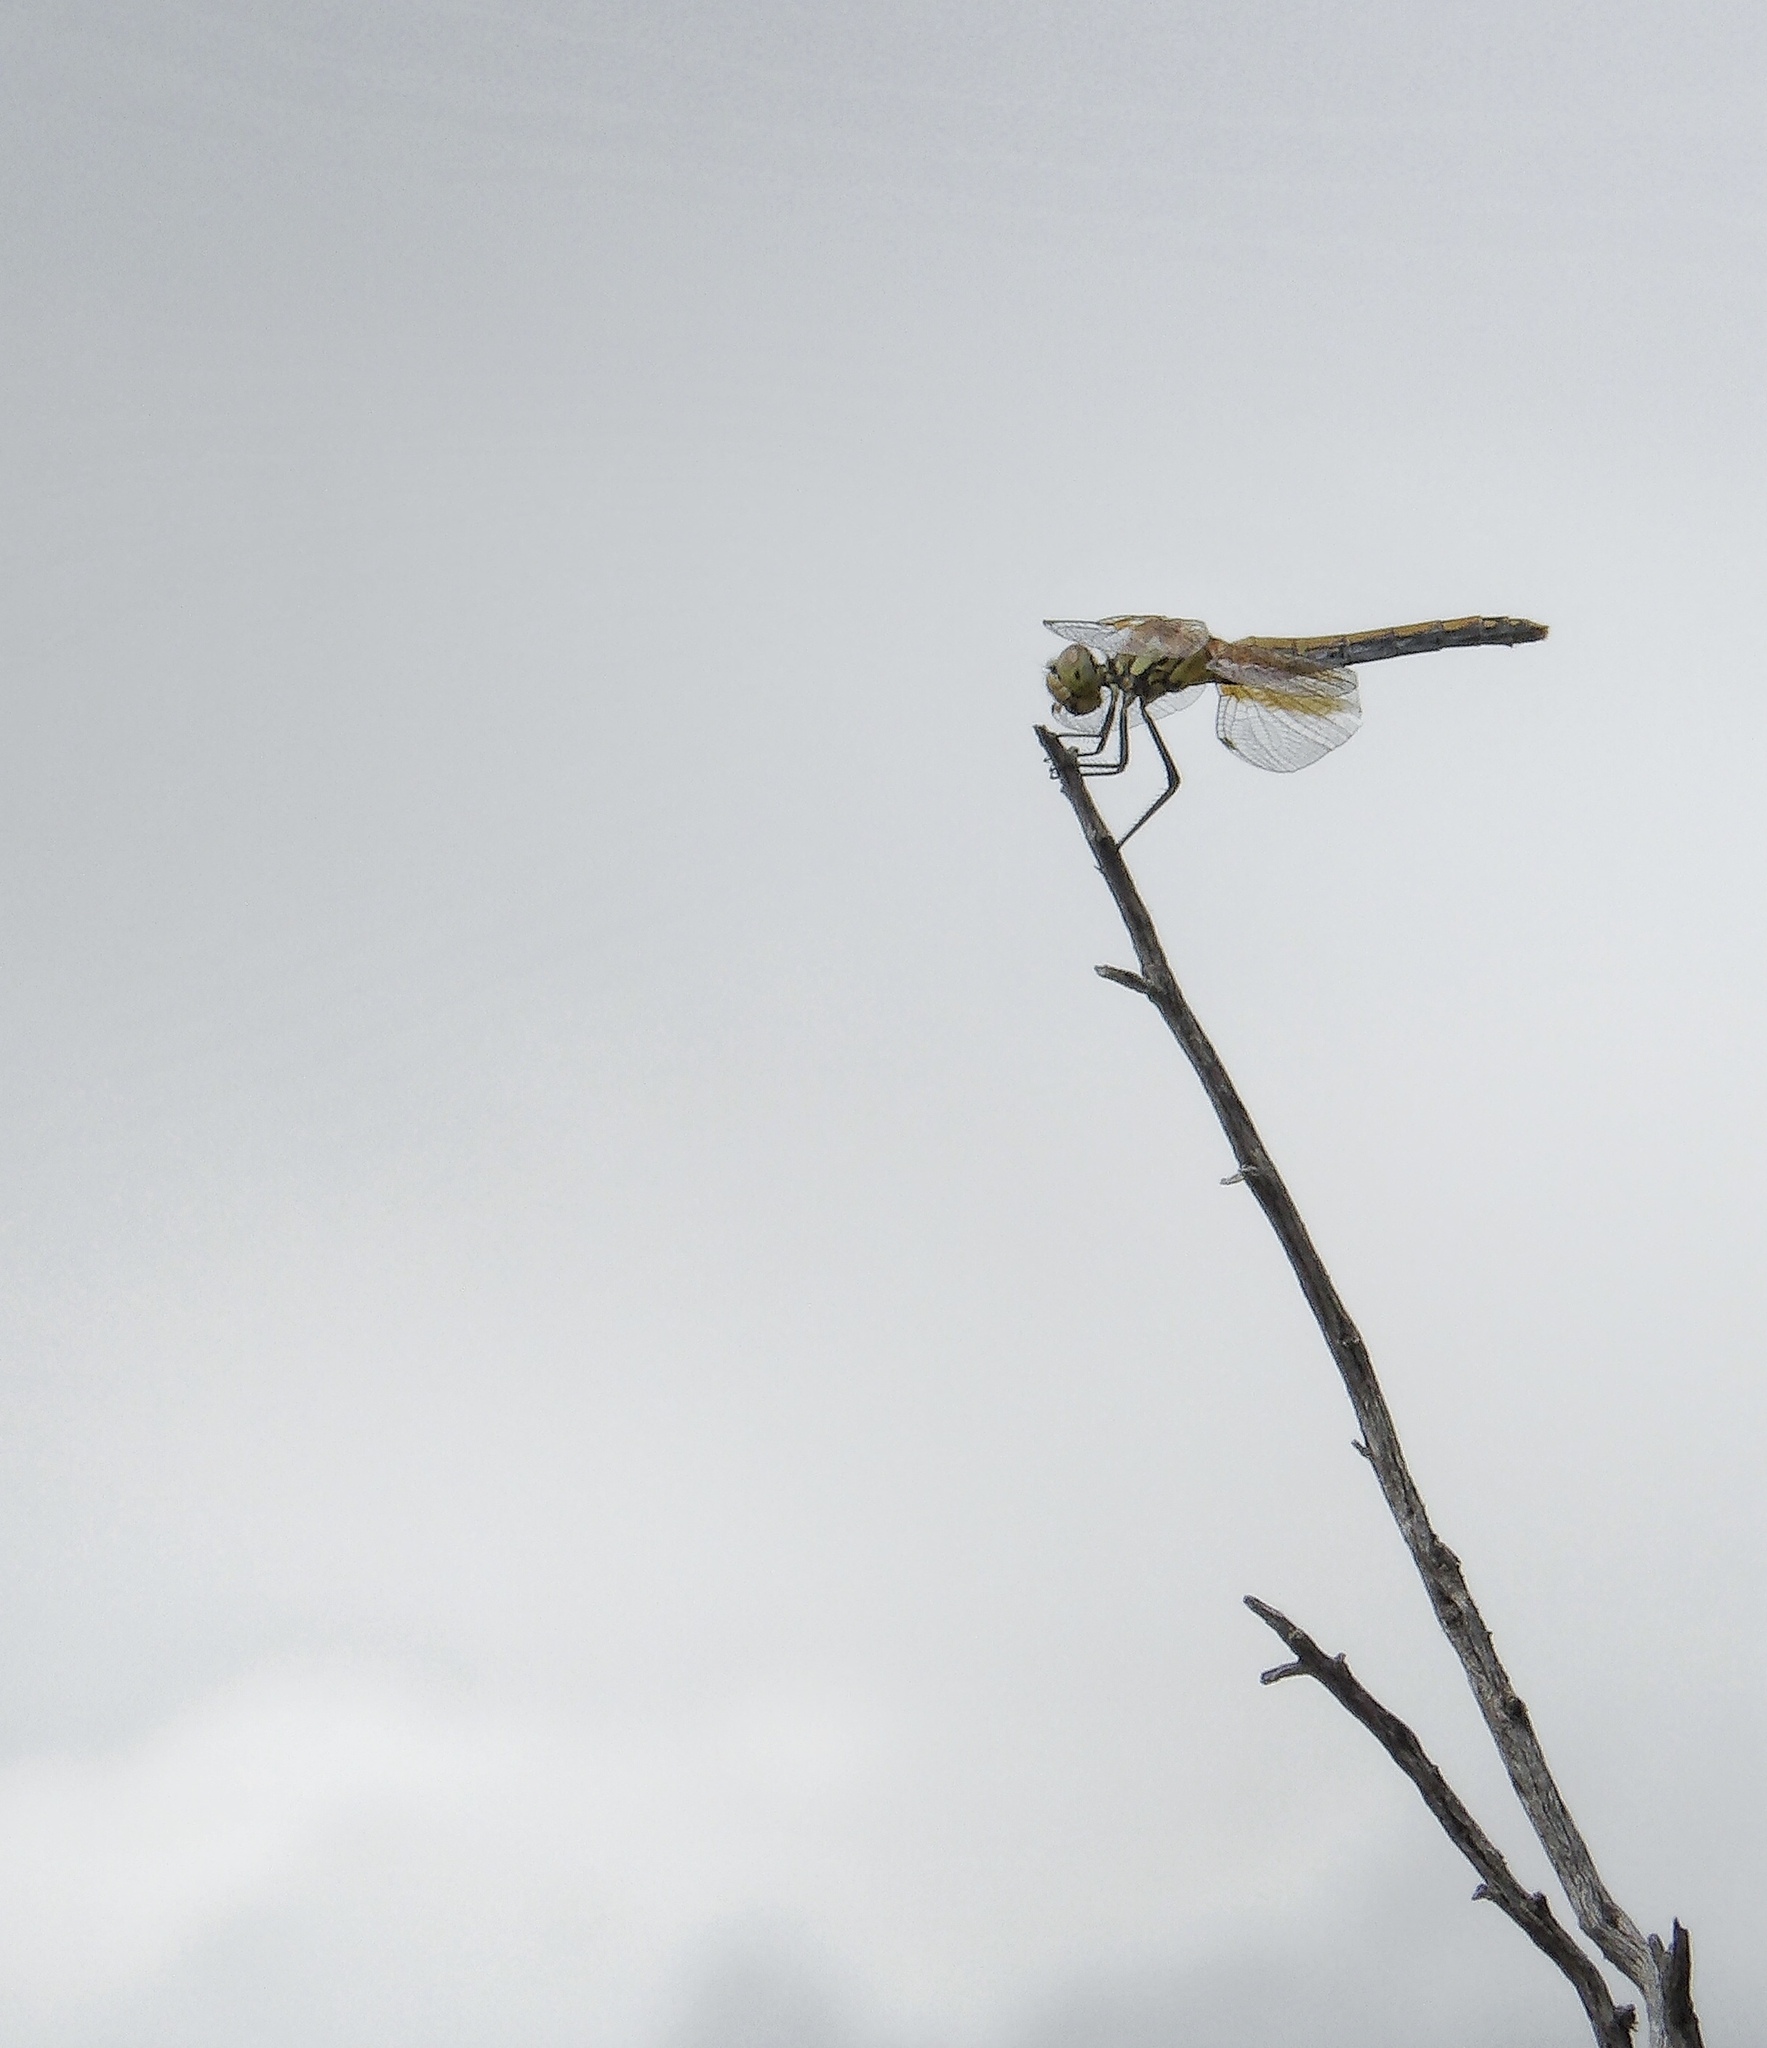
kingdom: Animalia
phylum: Arthropoda
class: Insecta
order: Odonata
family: Libellulidae
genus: Sympetrum
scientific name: Sympetrum semicinctum
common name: Band-winged meadowhawk
